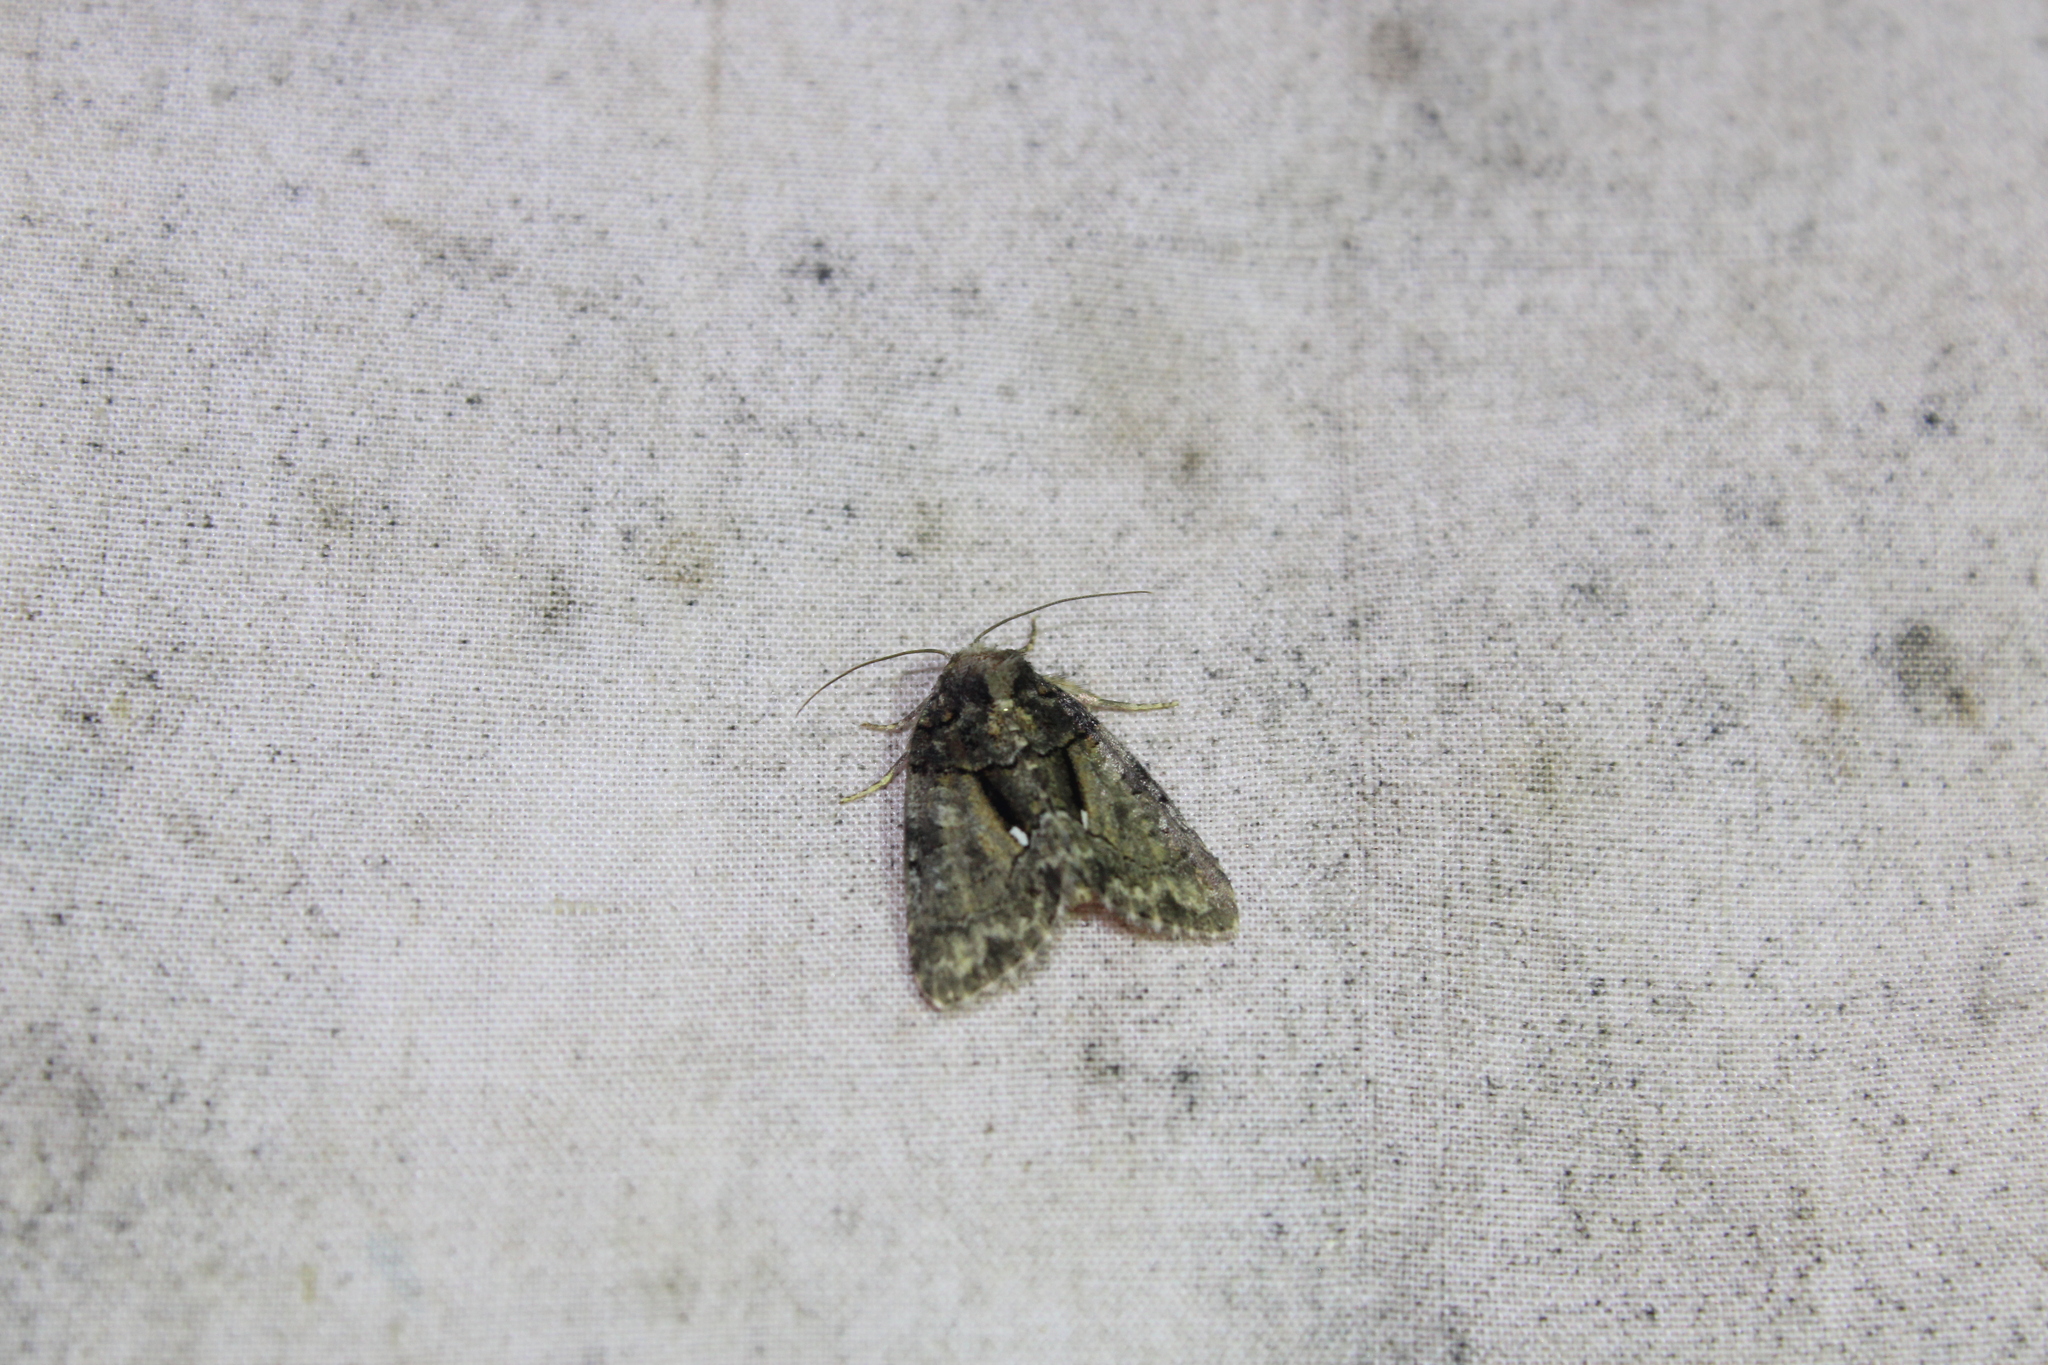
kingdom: Animalia
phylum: Arthropoda
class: Insecta
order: Lepidoptera
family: Noctuidae
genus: Chytonix
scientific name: Chytonix palliatricula
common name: Cloaked marvel
